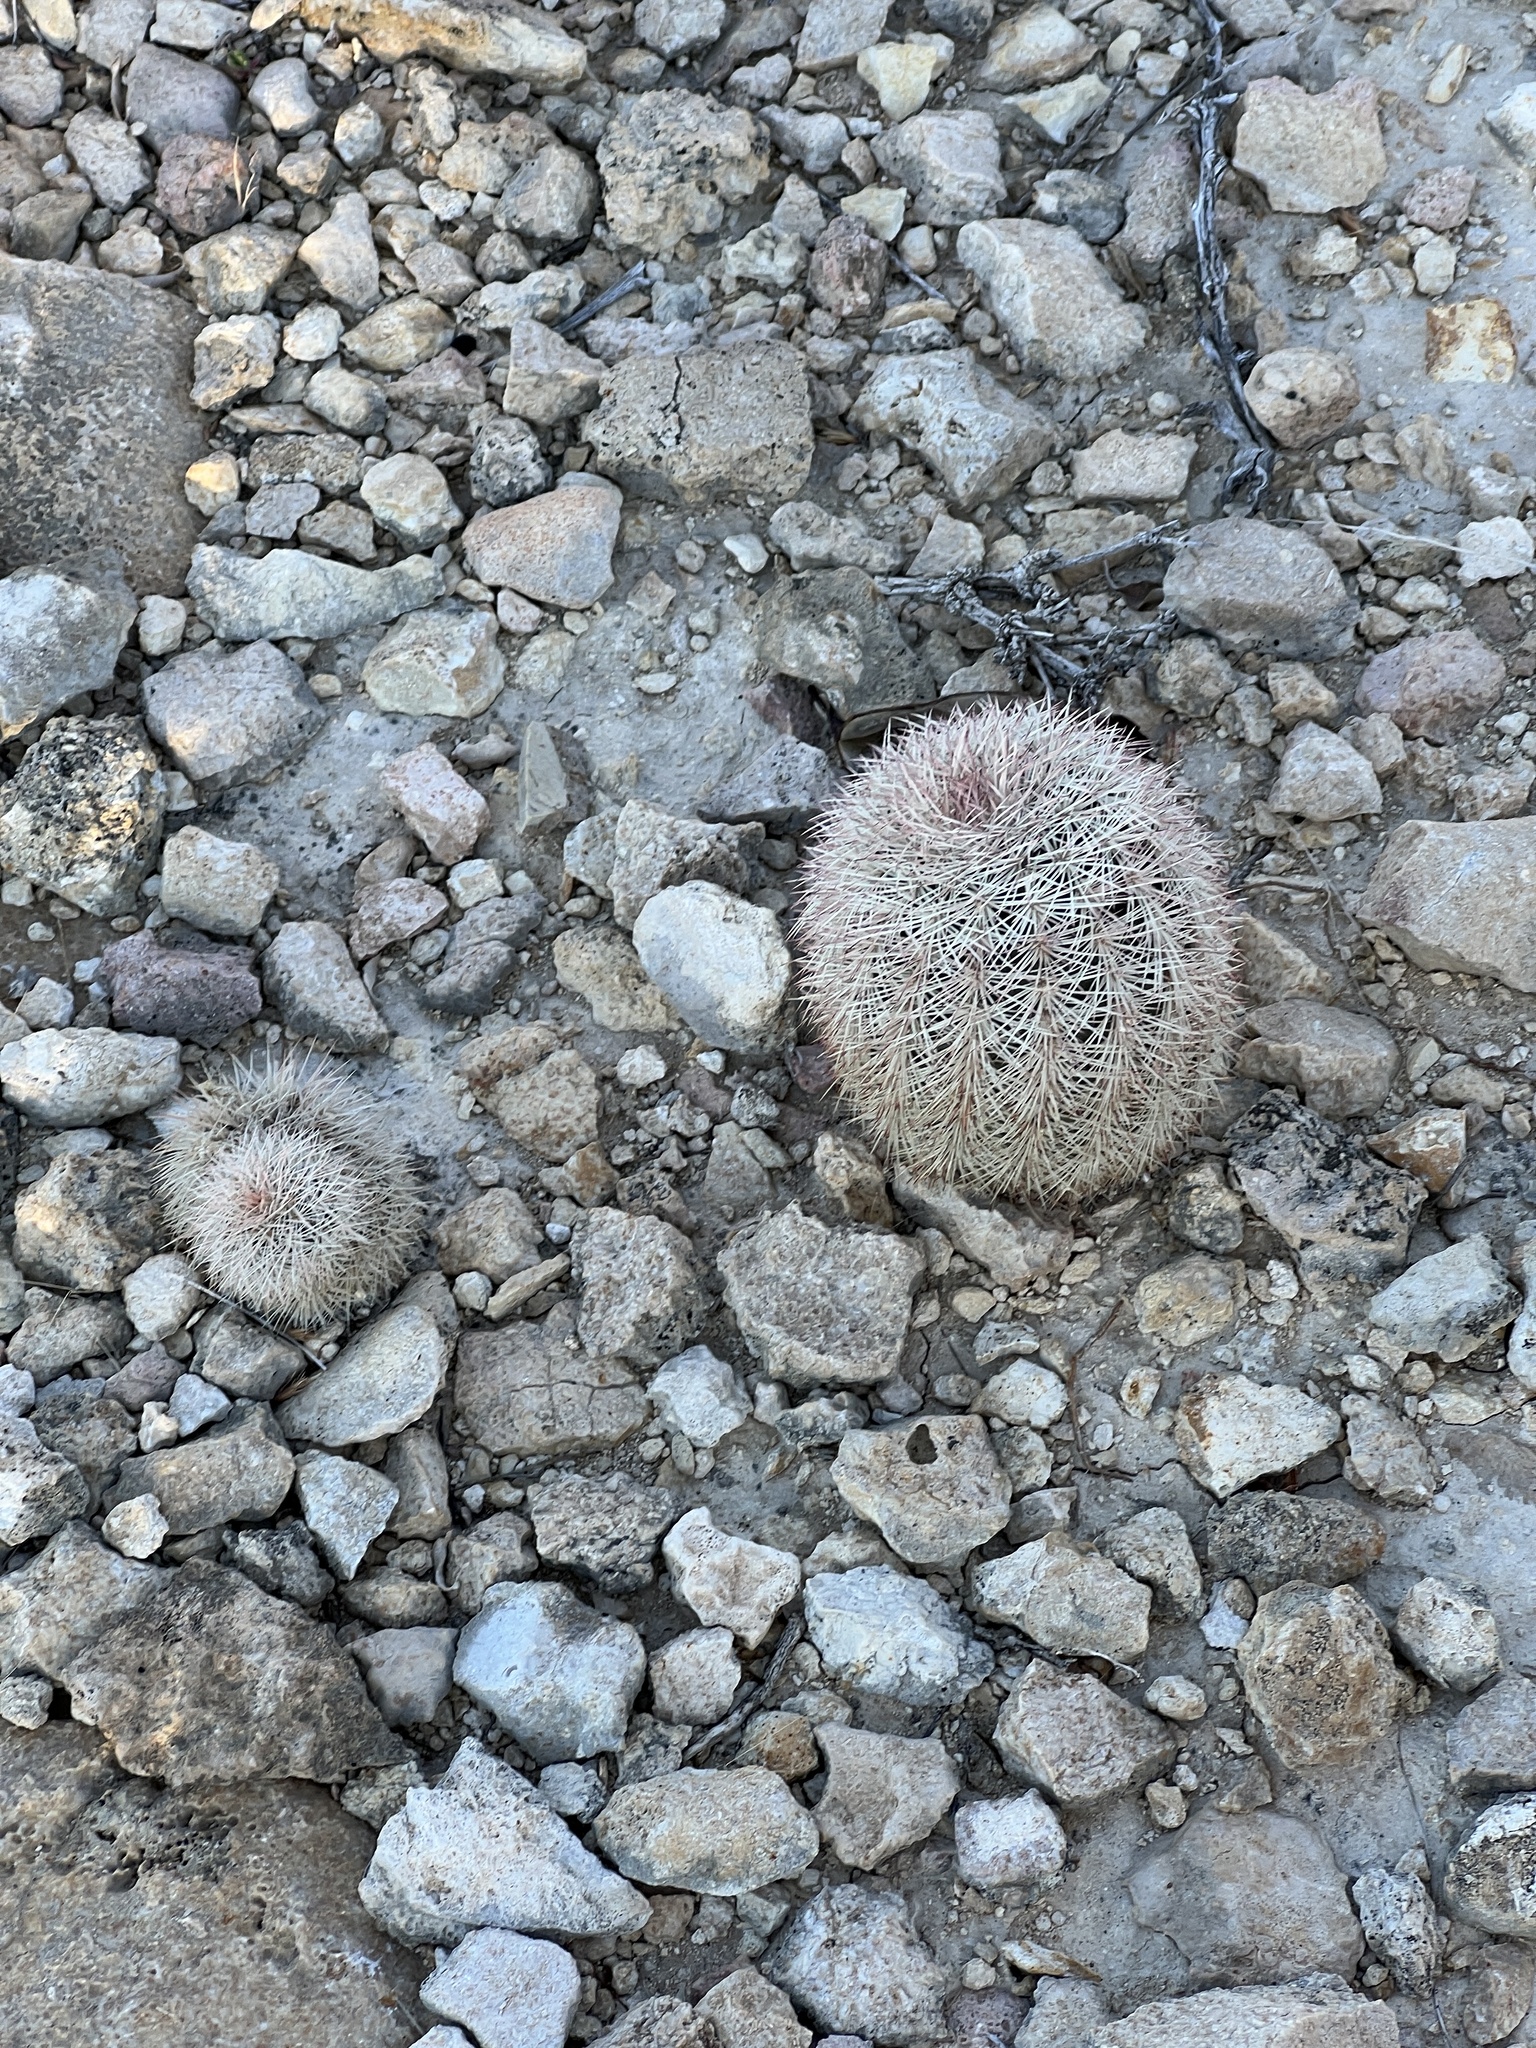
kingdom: Plantae
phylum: Tracheophyta
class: Magnoliopsida
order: Caryophyllales
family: Cactaceae
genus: Echinocereus
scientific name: Echinocereus dasyacanthus
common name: Spiny hedgehog cactus
